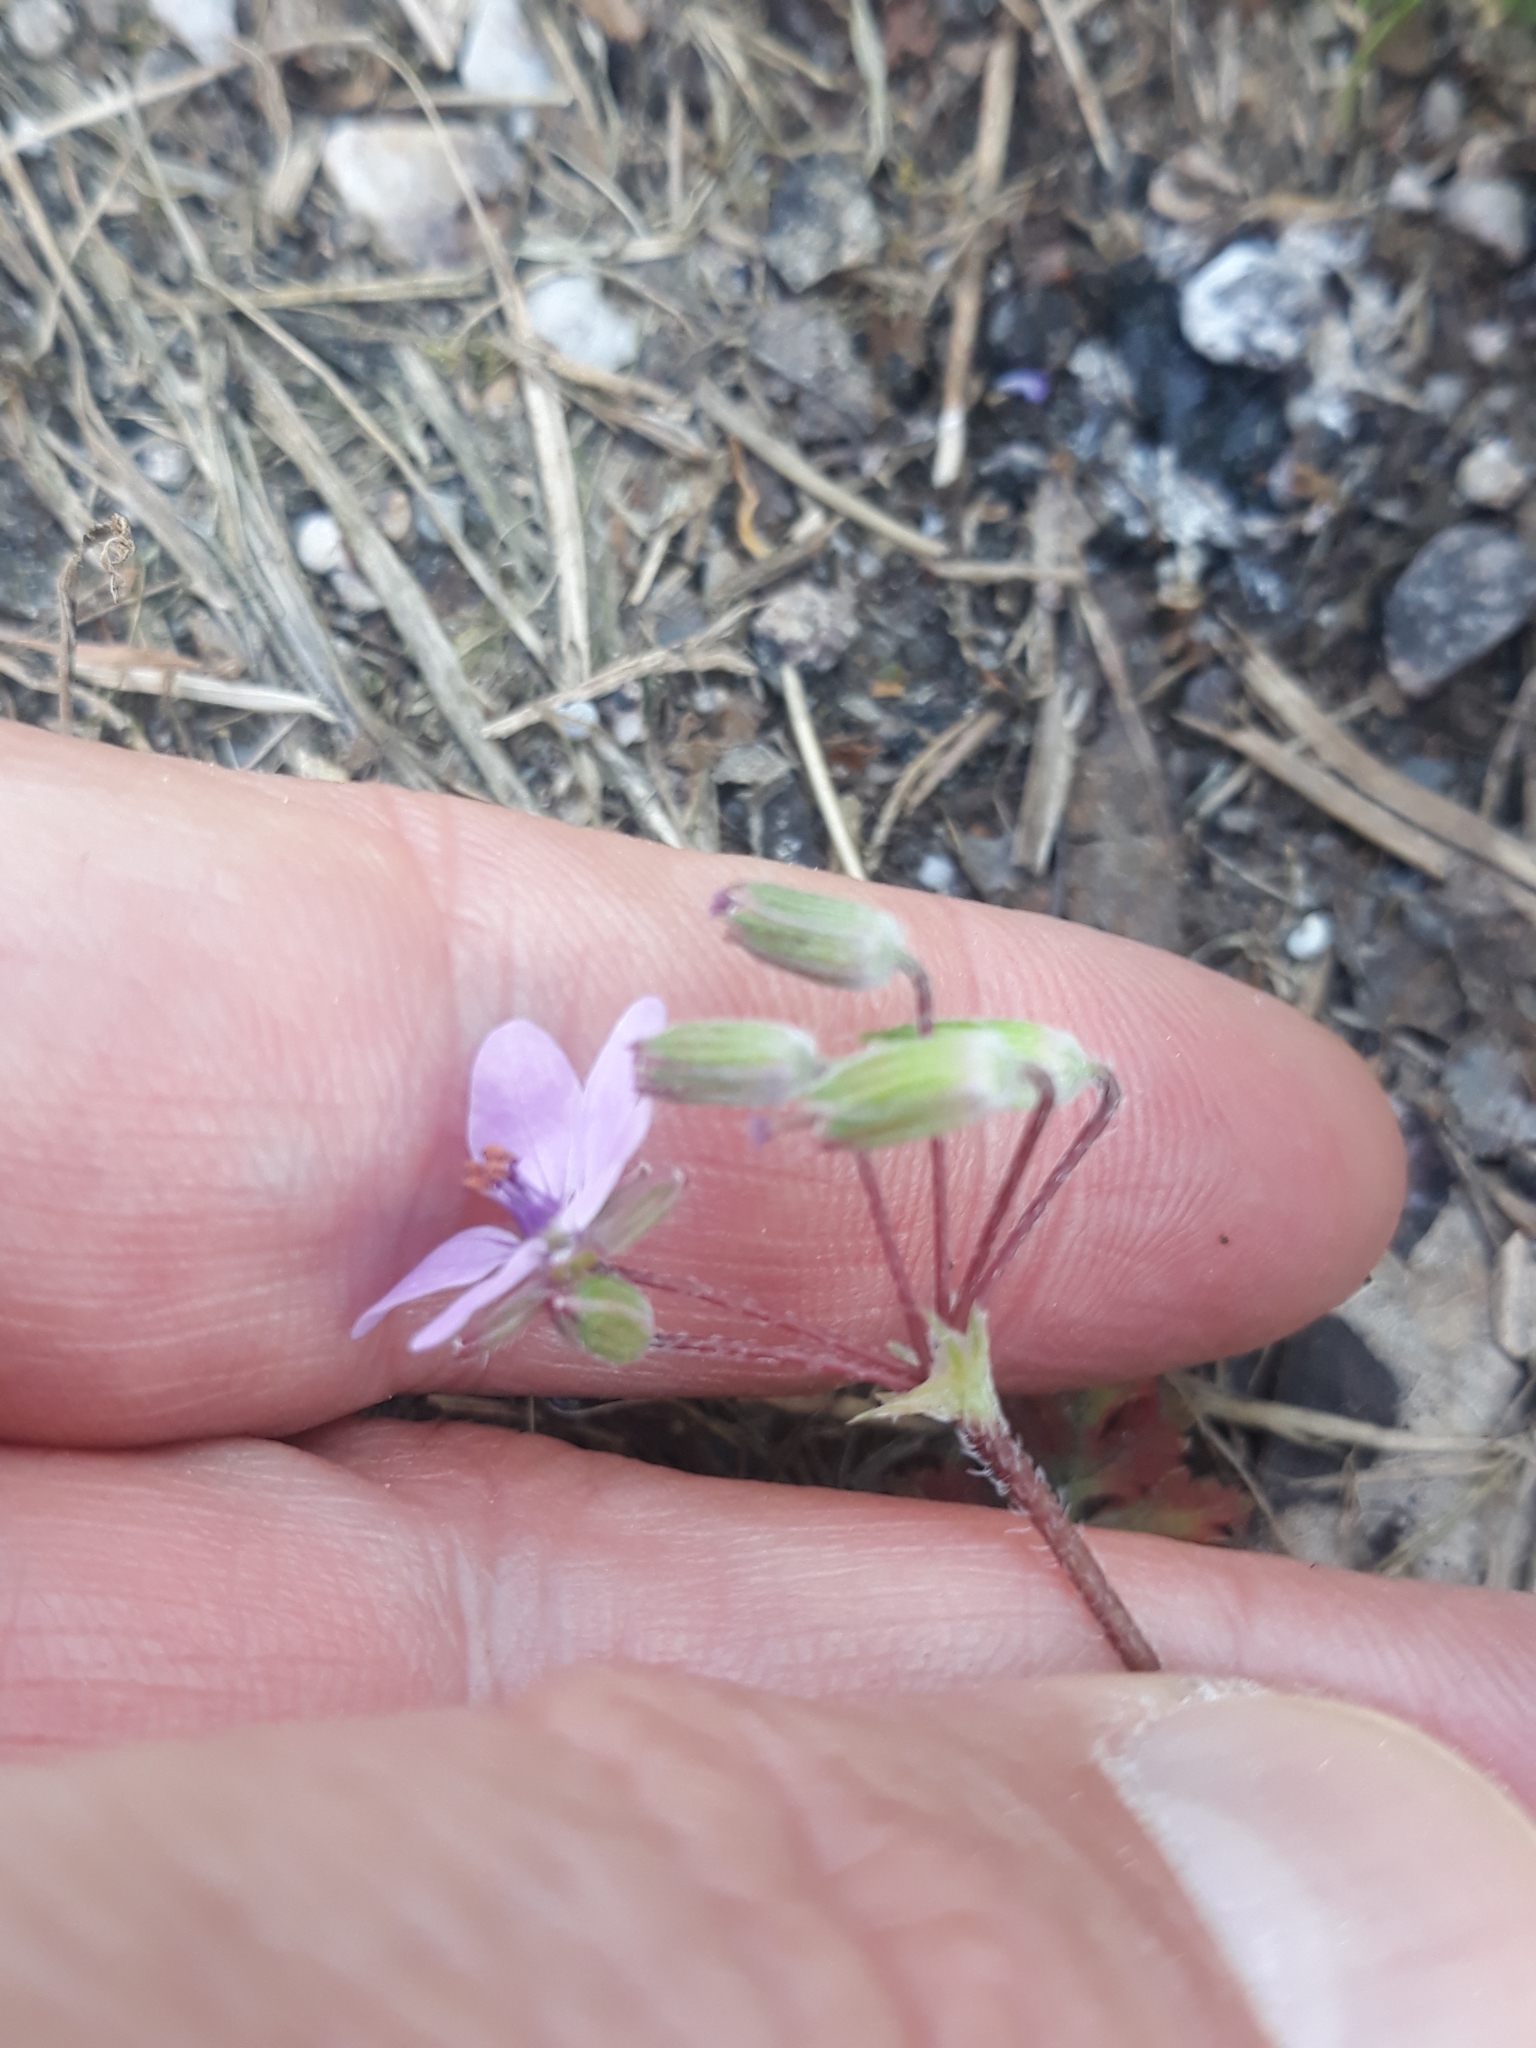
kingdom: Plantae
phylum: Tracheophyta
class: Magnoliopsida
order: Geraniales
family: Geraniaceae
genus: Erodium
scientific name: Erodium cicutarium
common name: Common stork's-bill
